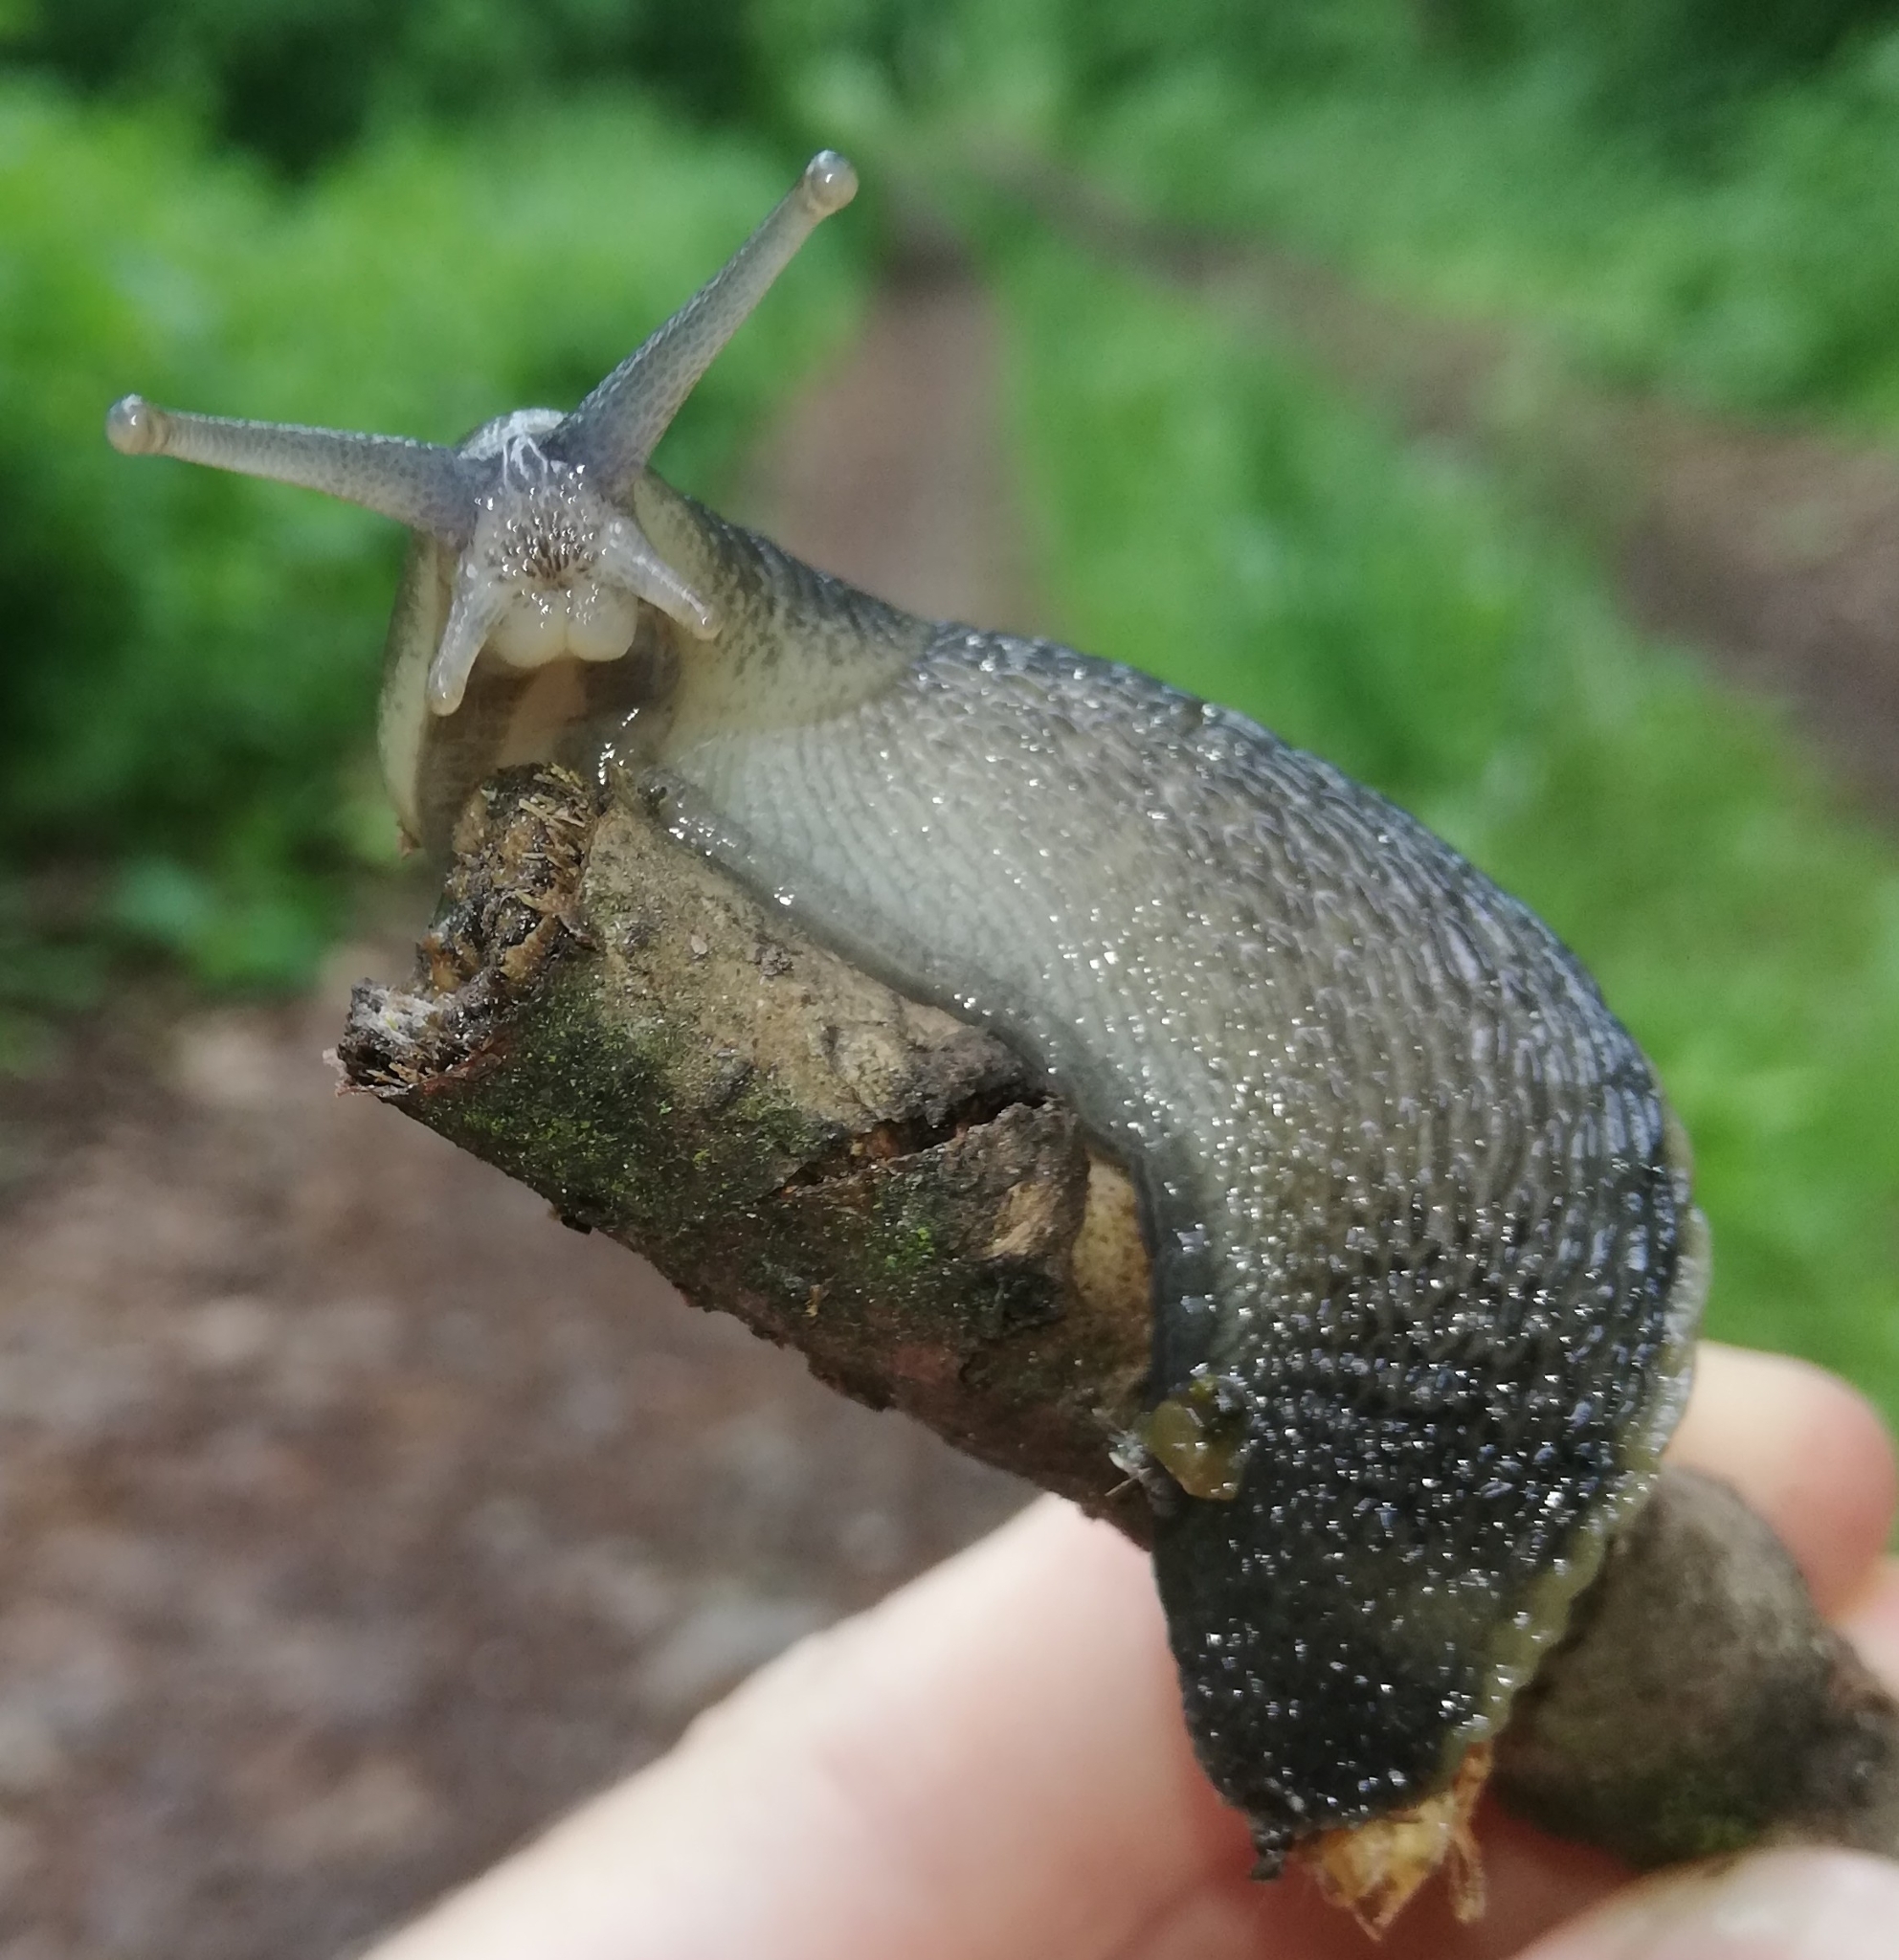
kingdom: Animalia
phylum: Mollusca
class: Gastropoda
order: Stylommatophora
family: Limacidae
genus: Limax
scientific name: Limax cinereoniger
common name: Ash-black slug
